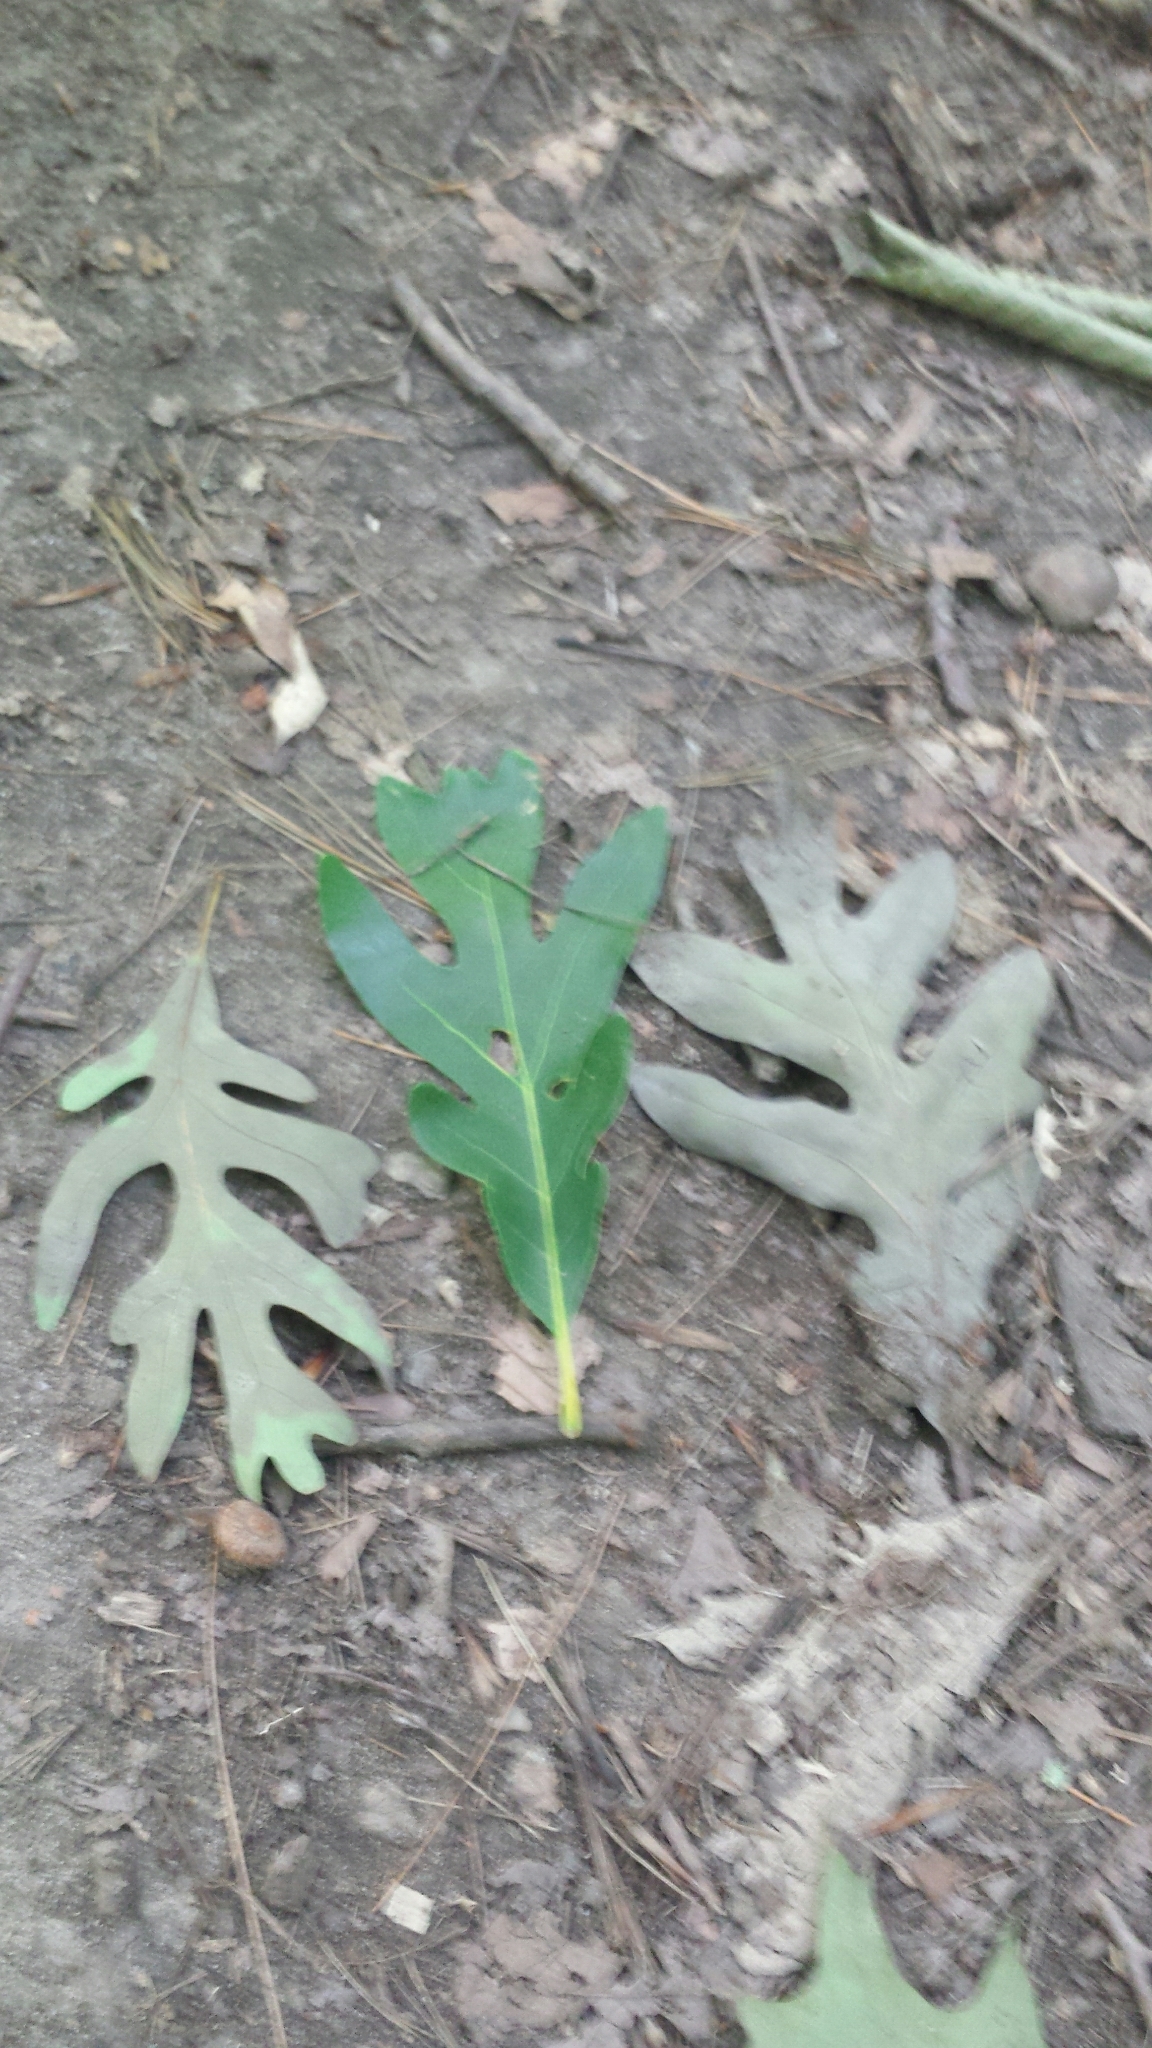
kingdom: Plantae
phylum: Tracheophyta
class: Magnoliopsida
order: Fagales
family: Fagaceae
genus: Quercus
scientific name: Quercus alba
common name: White oak
